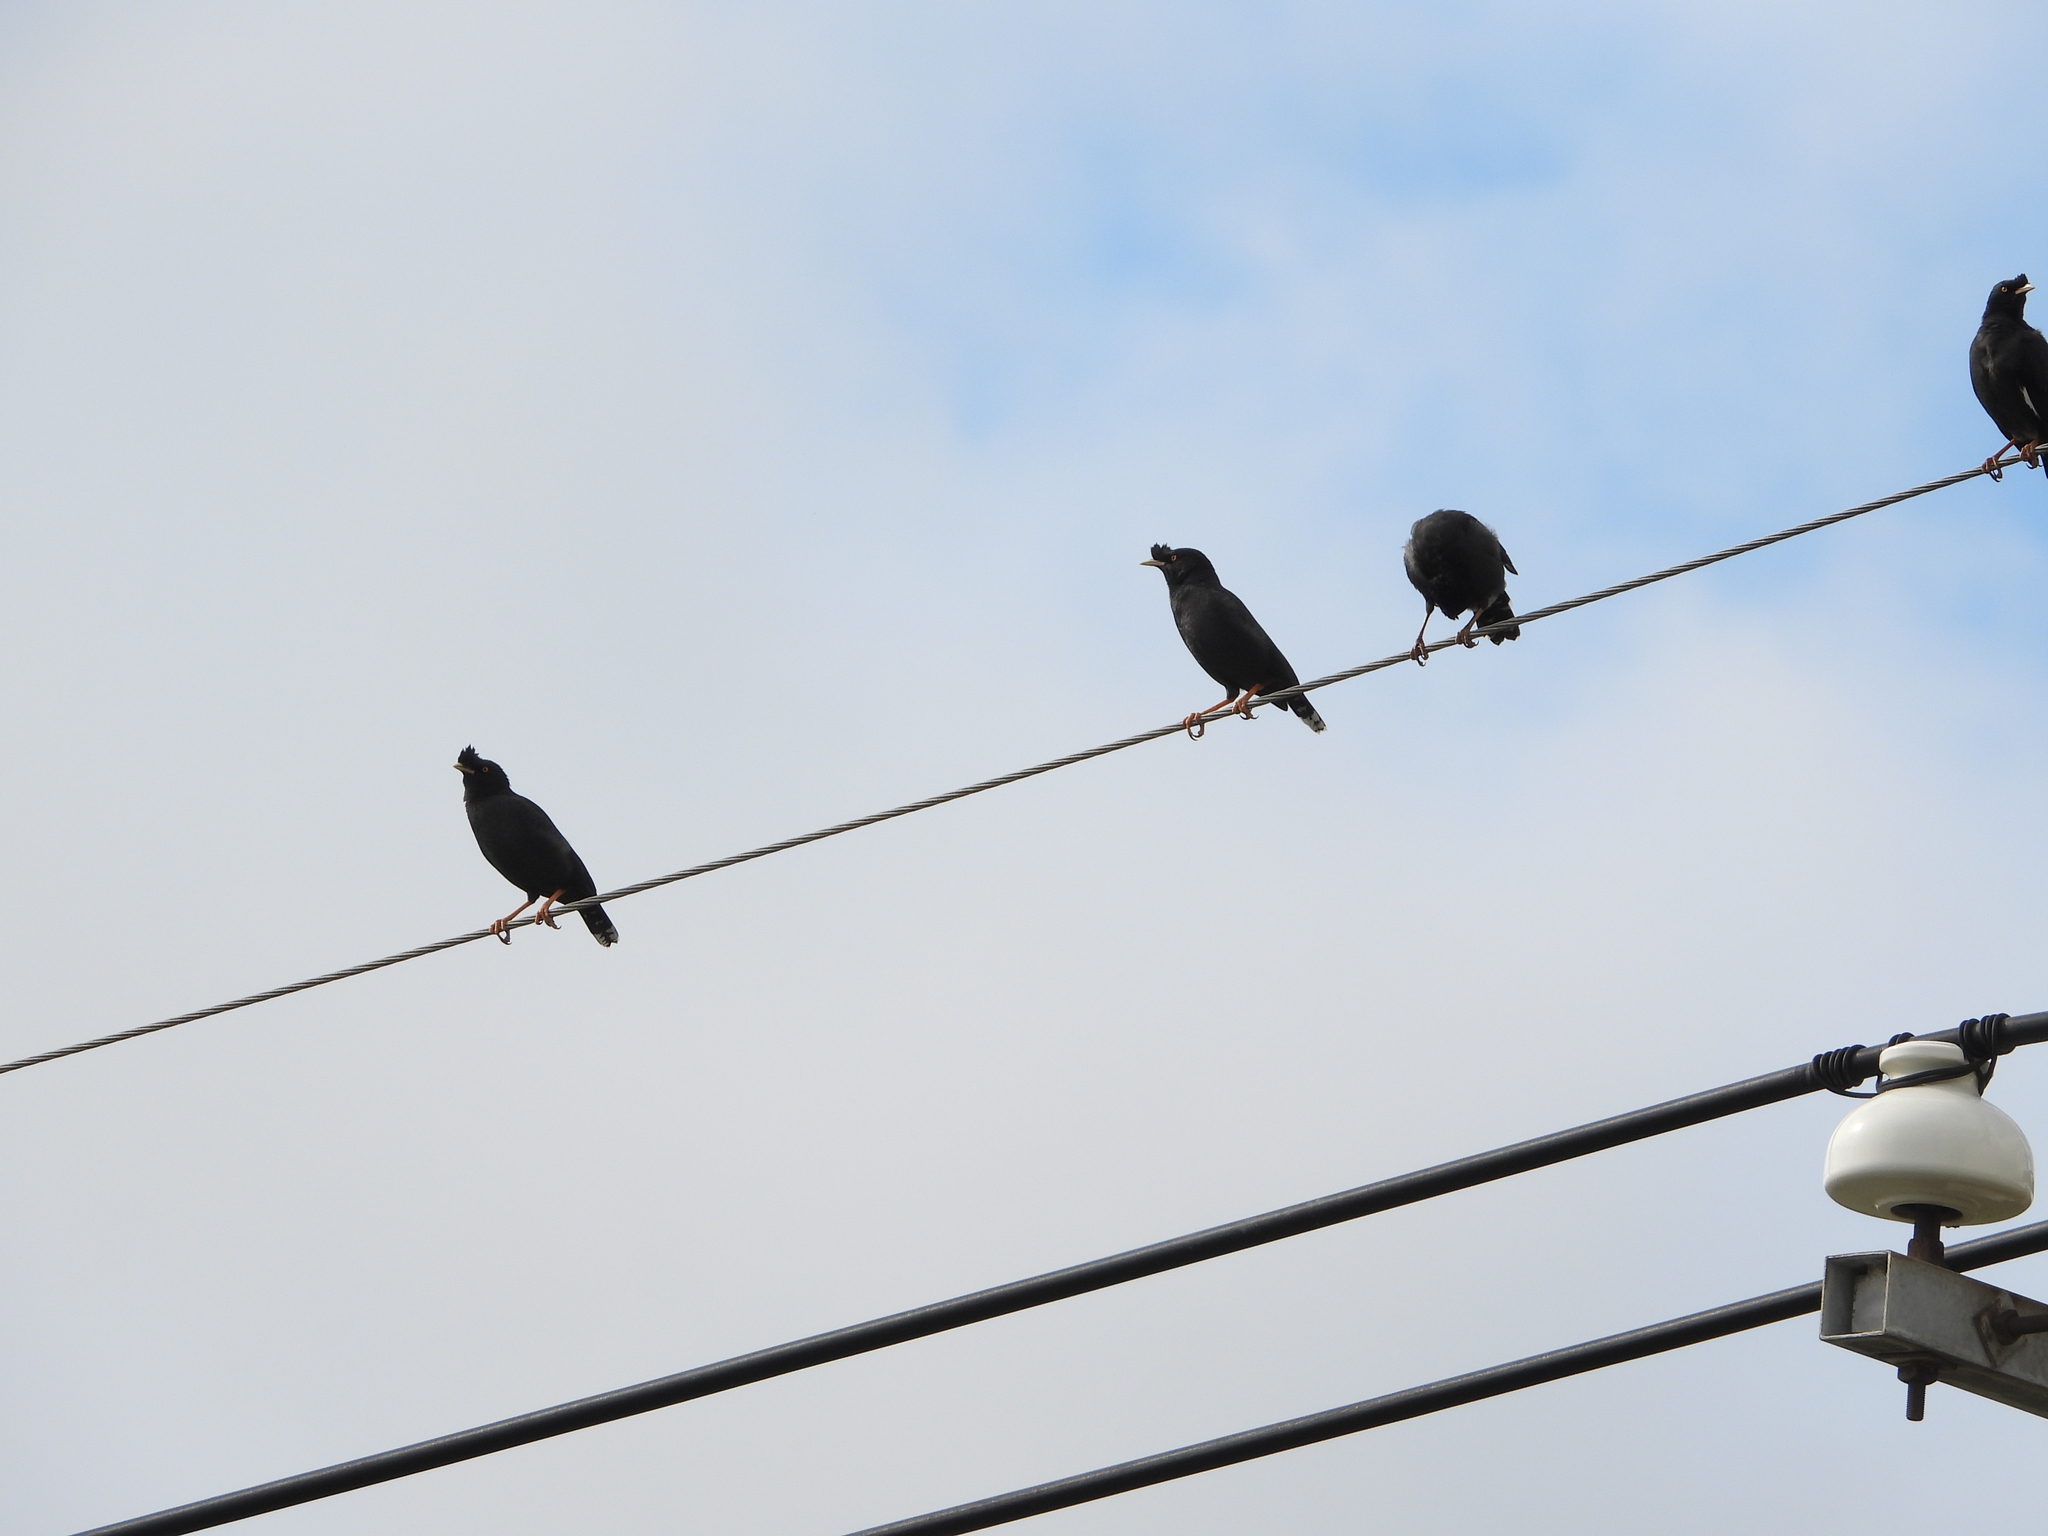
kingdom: Animalia
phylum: Chordata
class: Aves
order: Passeriformes
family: Sturnidae
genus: Acridotheres
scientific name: Acridotheres cristatellus
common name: Crested myna
